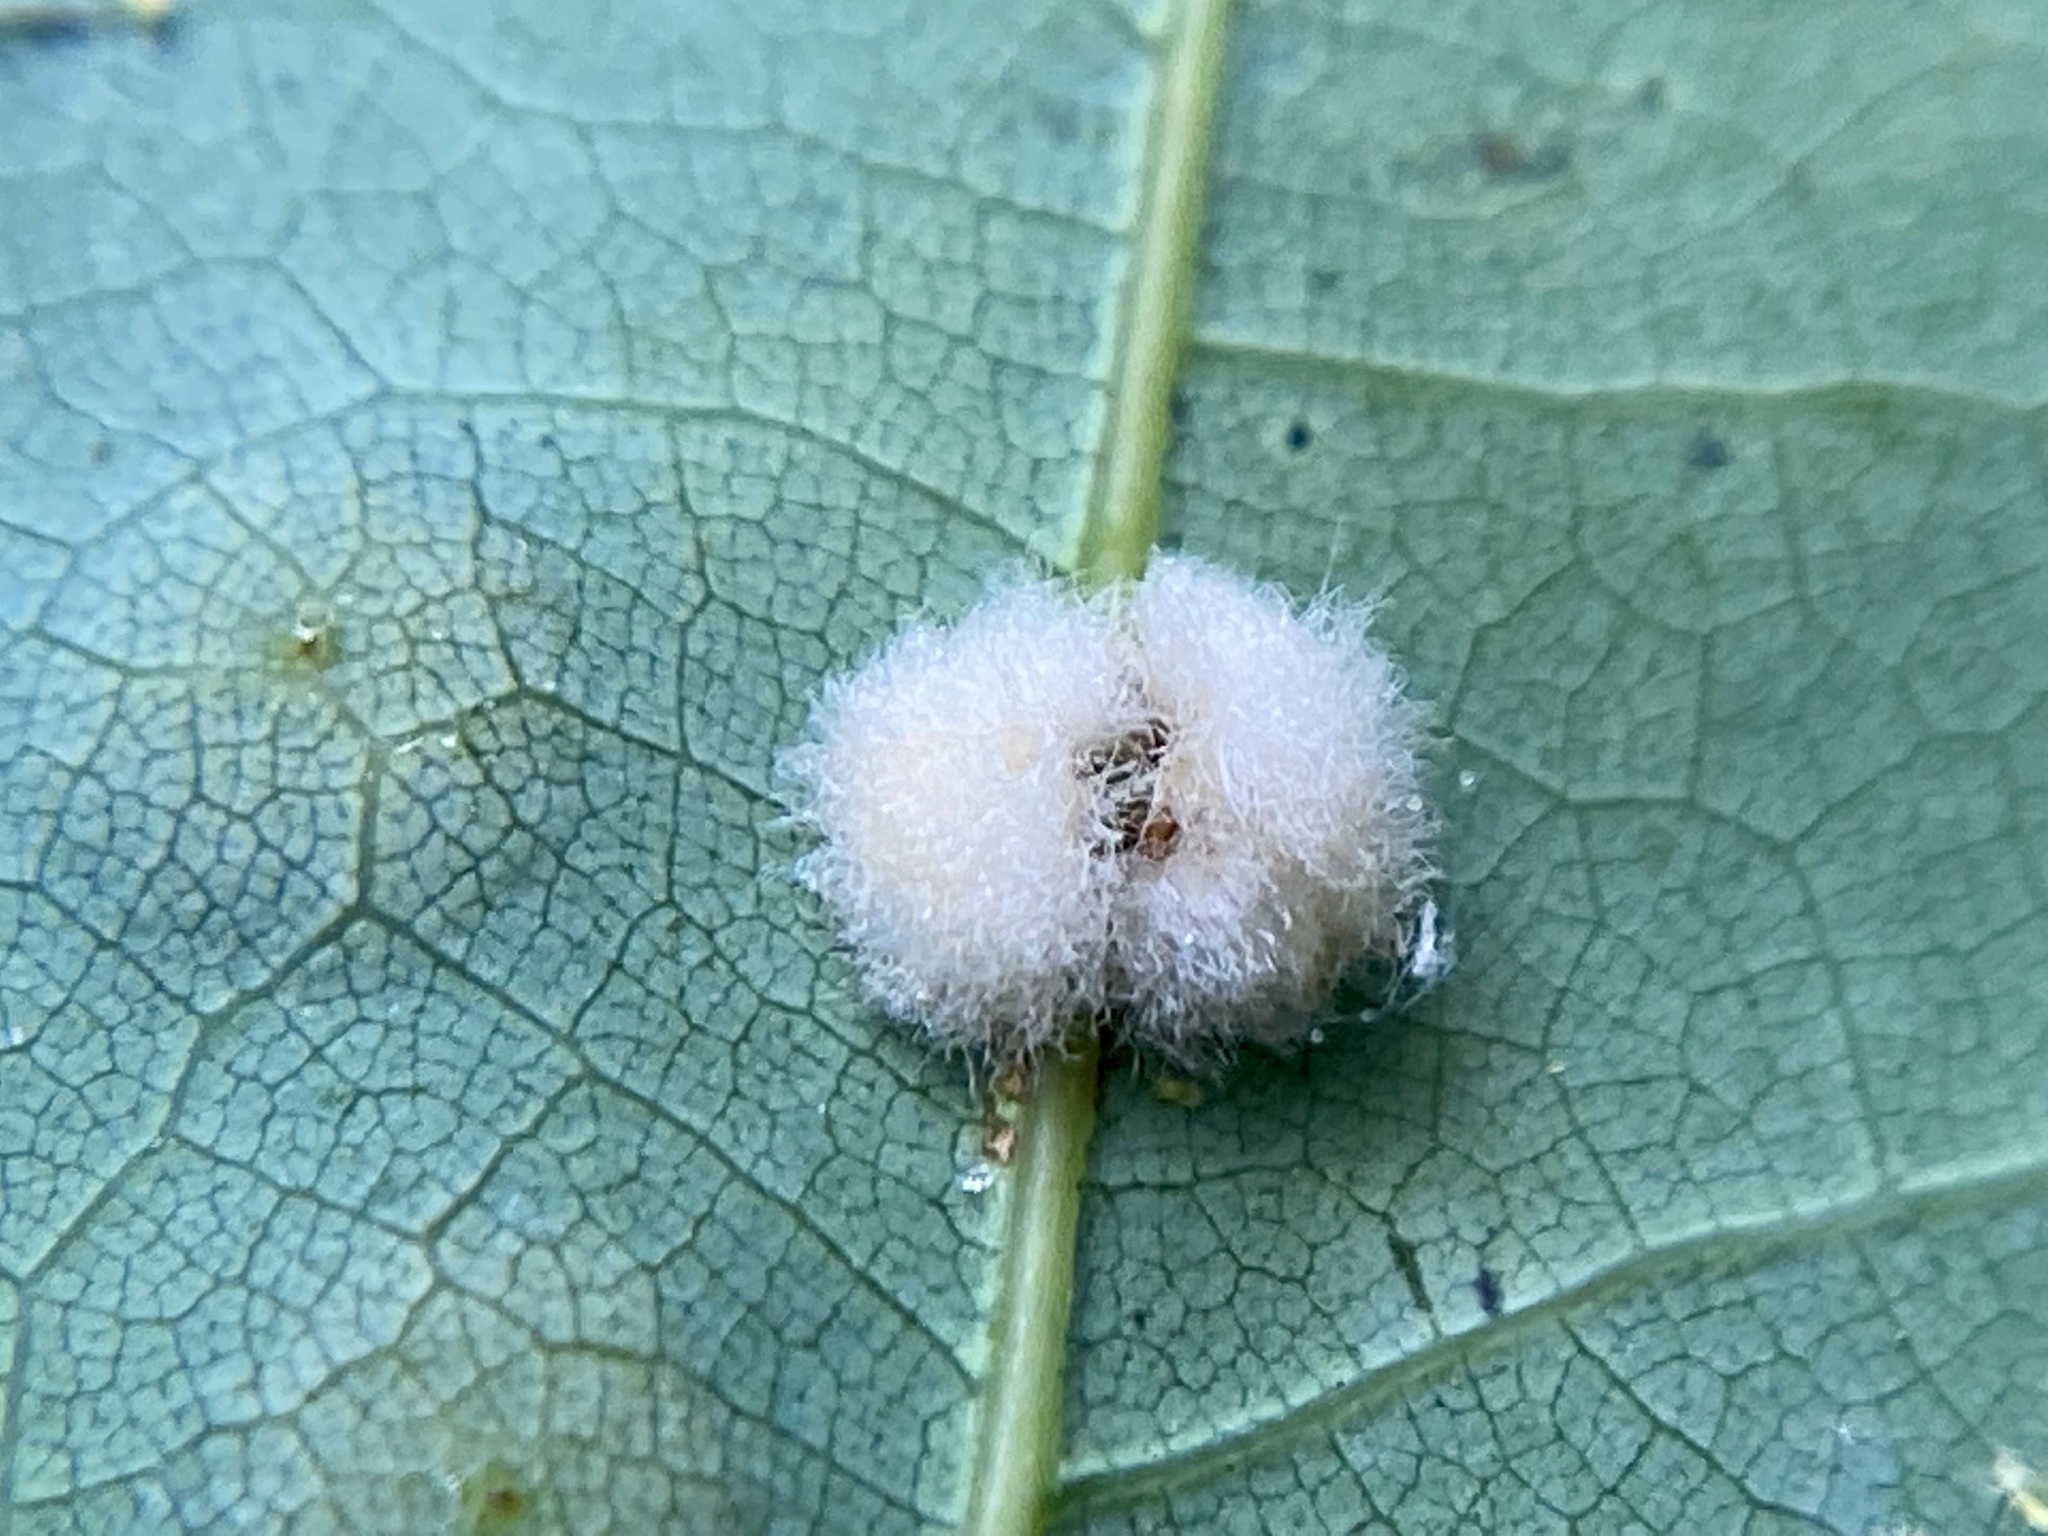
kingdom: Animalia
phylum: Arthropoda
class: Insecta
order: Hymenoptera
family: Cynipidae
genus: Neuroterus
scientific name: Neuroterus quercusverrucarum
